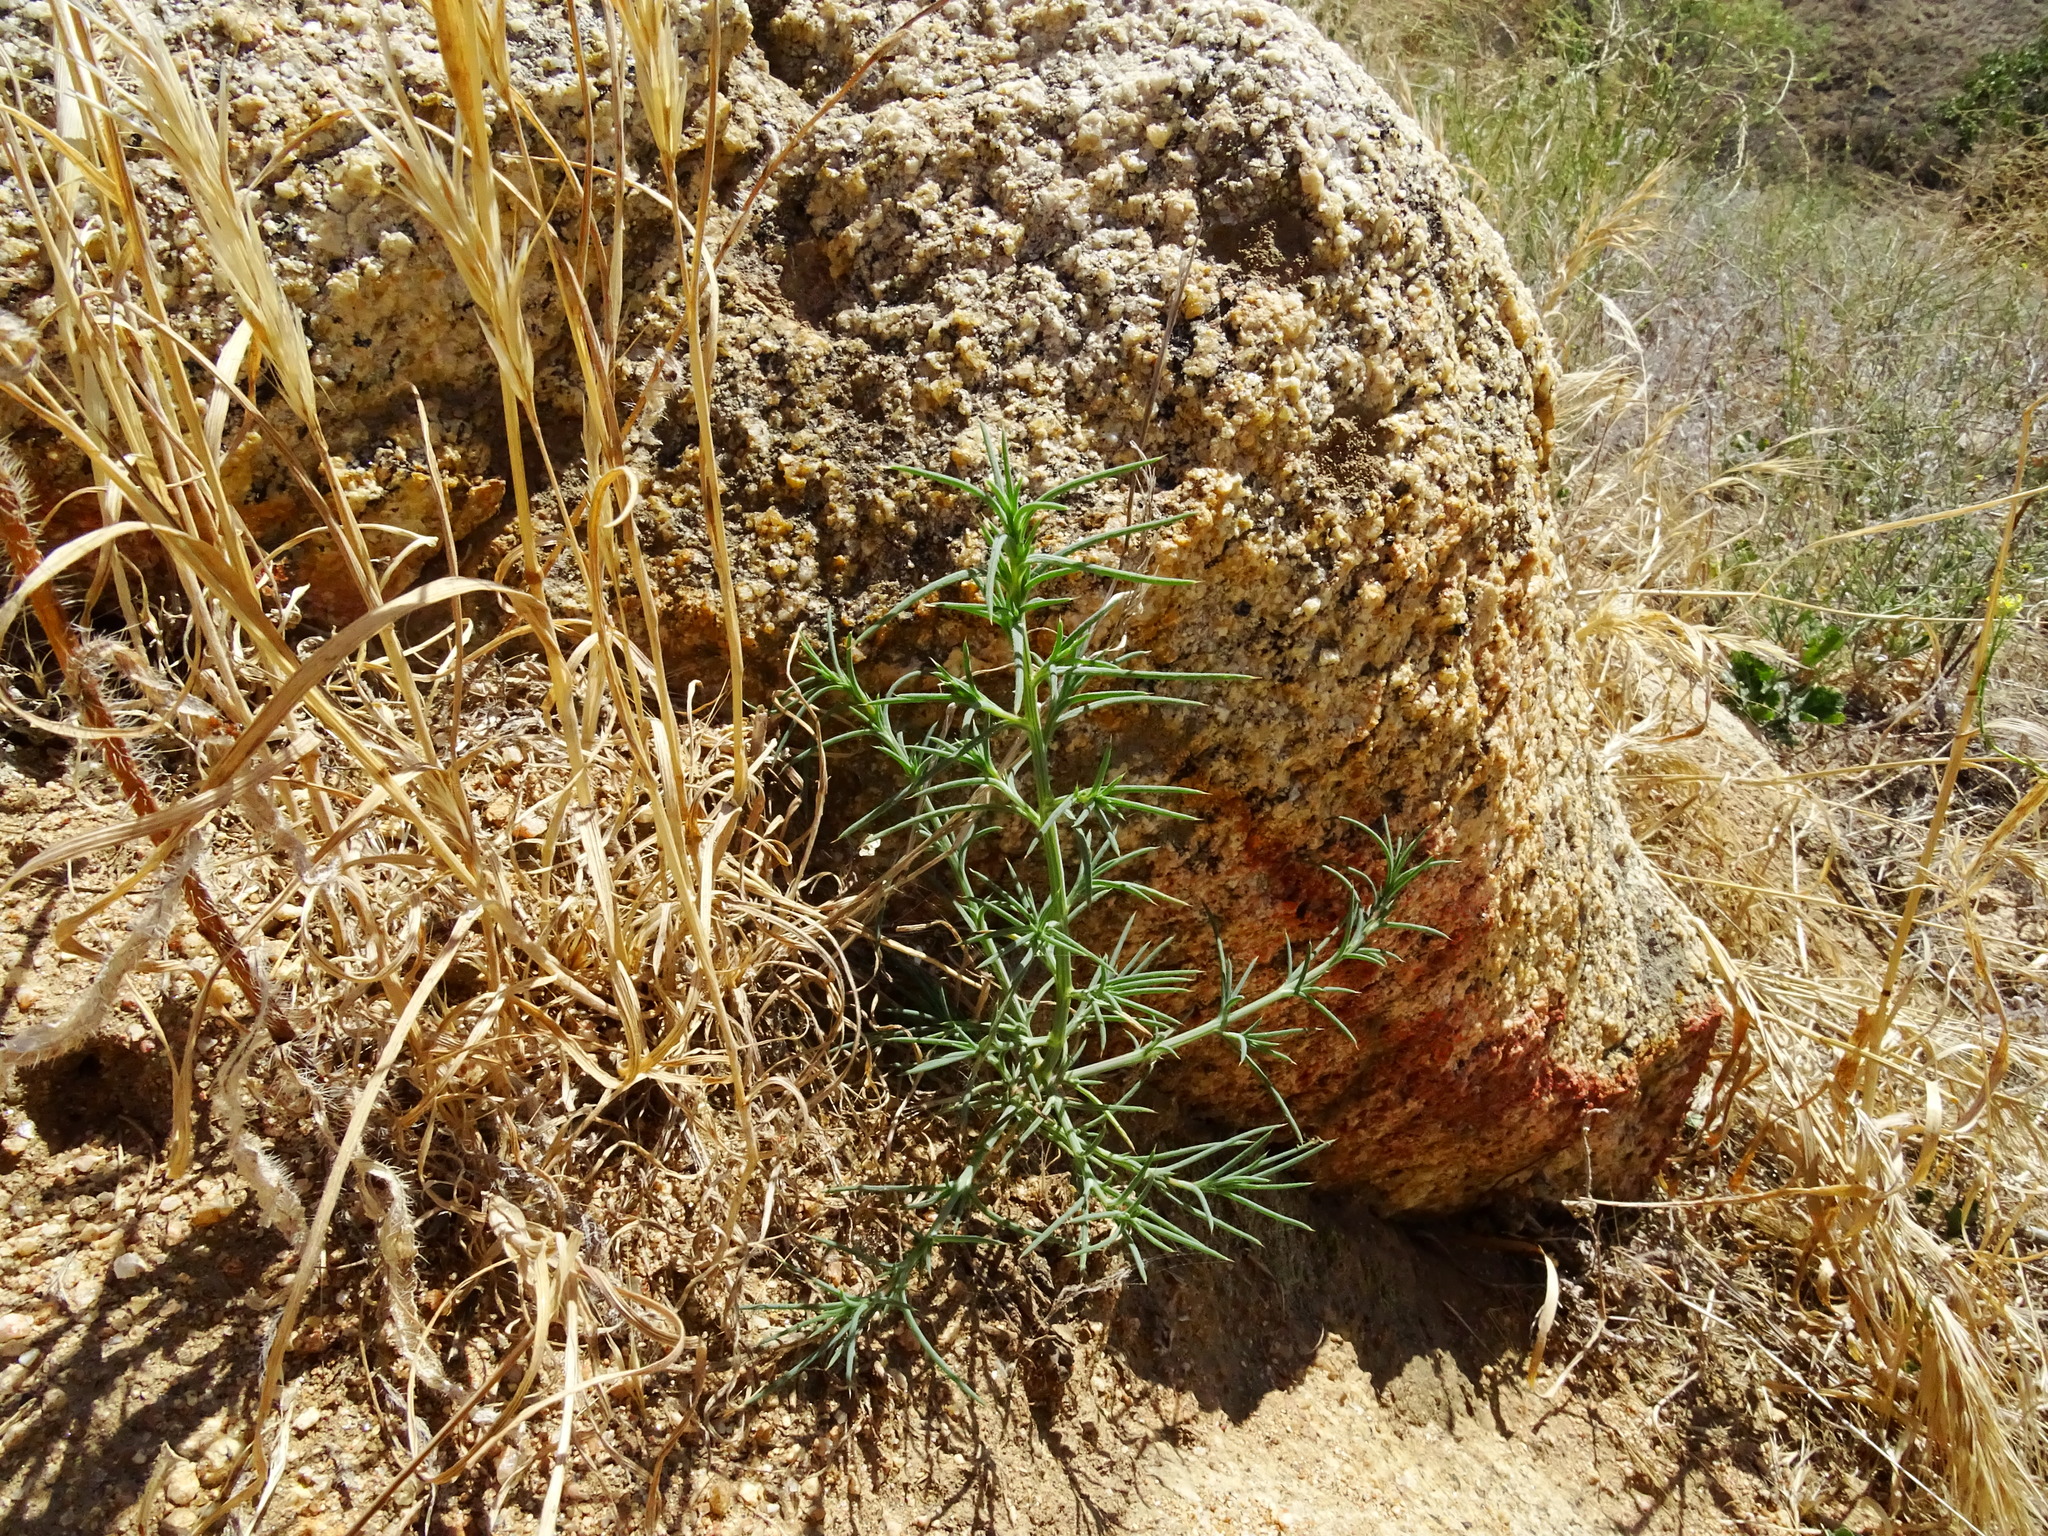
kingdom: Plantae
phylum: Tracheophyta
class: Magnoliopsida
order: Caryophyllales
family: Amaranthaceae
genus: Salsola
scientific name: Salsola
